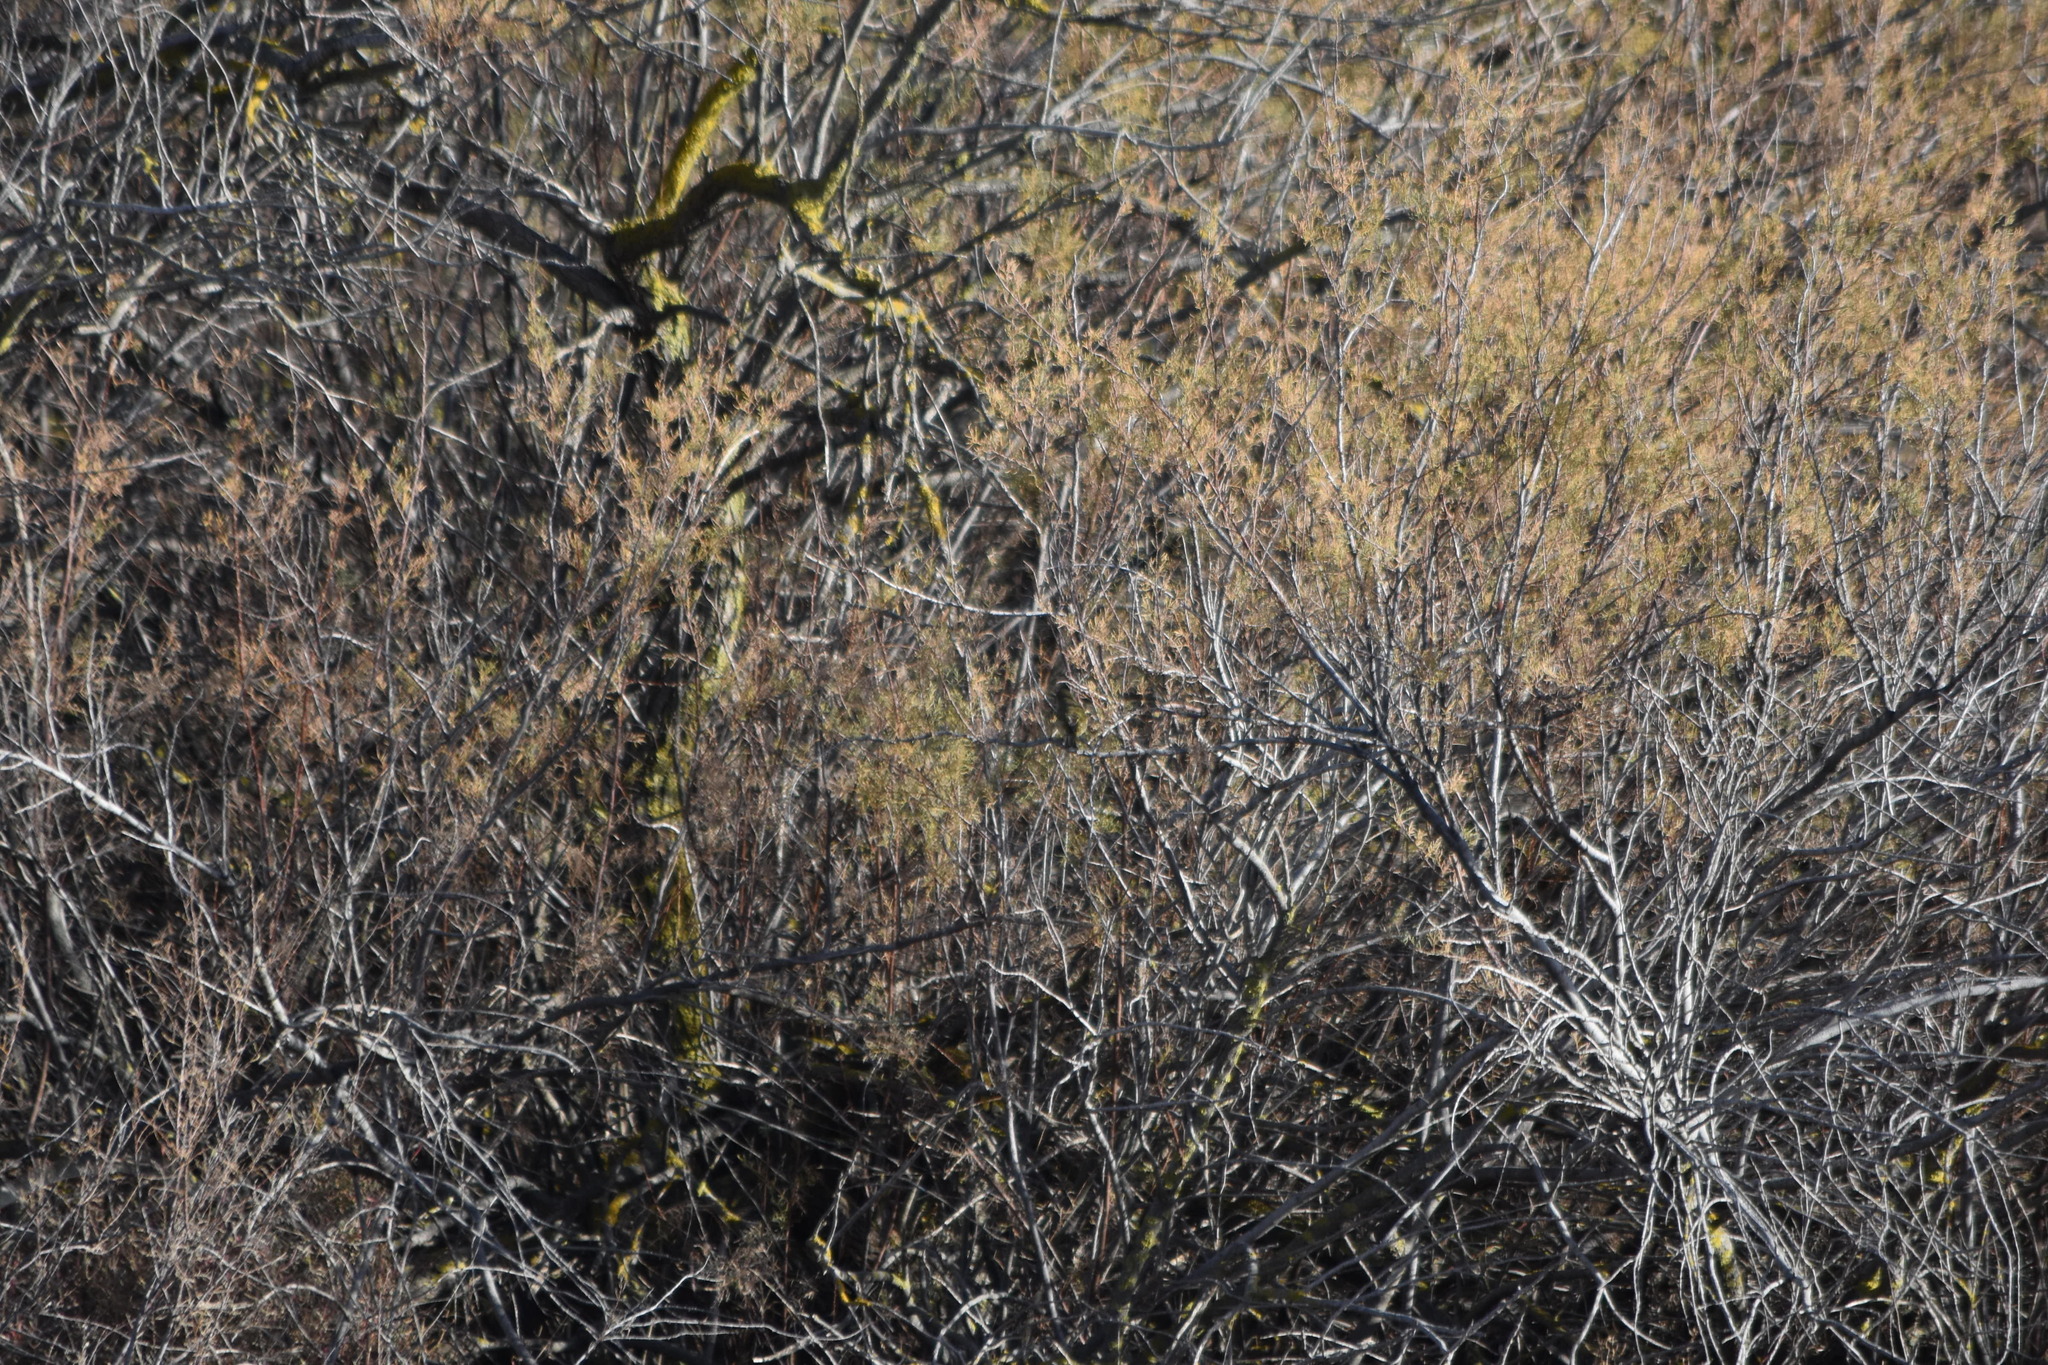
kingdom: Animalia
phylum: Chordata
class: Aves
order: Passeriformes
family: Phylloscopidae
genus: Phylloscopus
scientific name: Phylloscopus collybita
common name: Common chiffchaff
